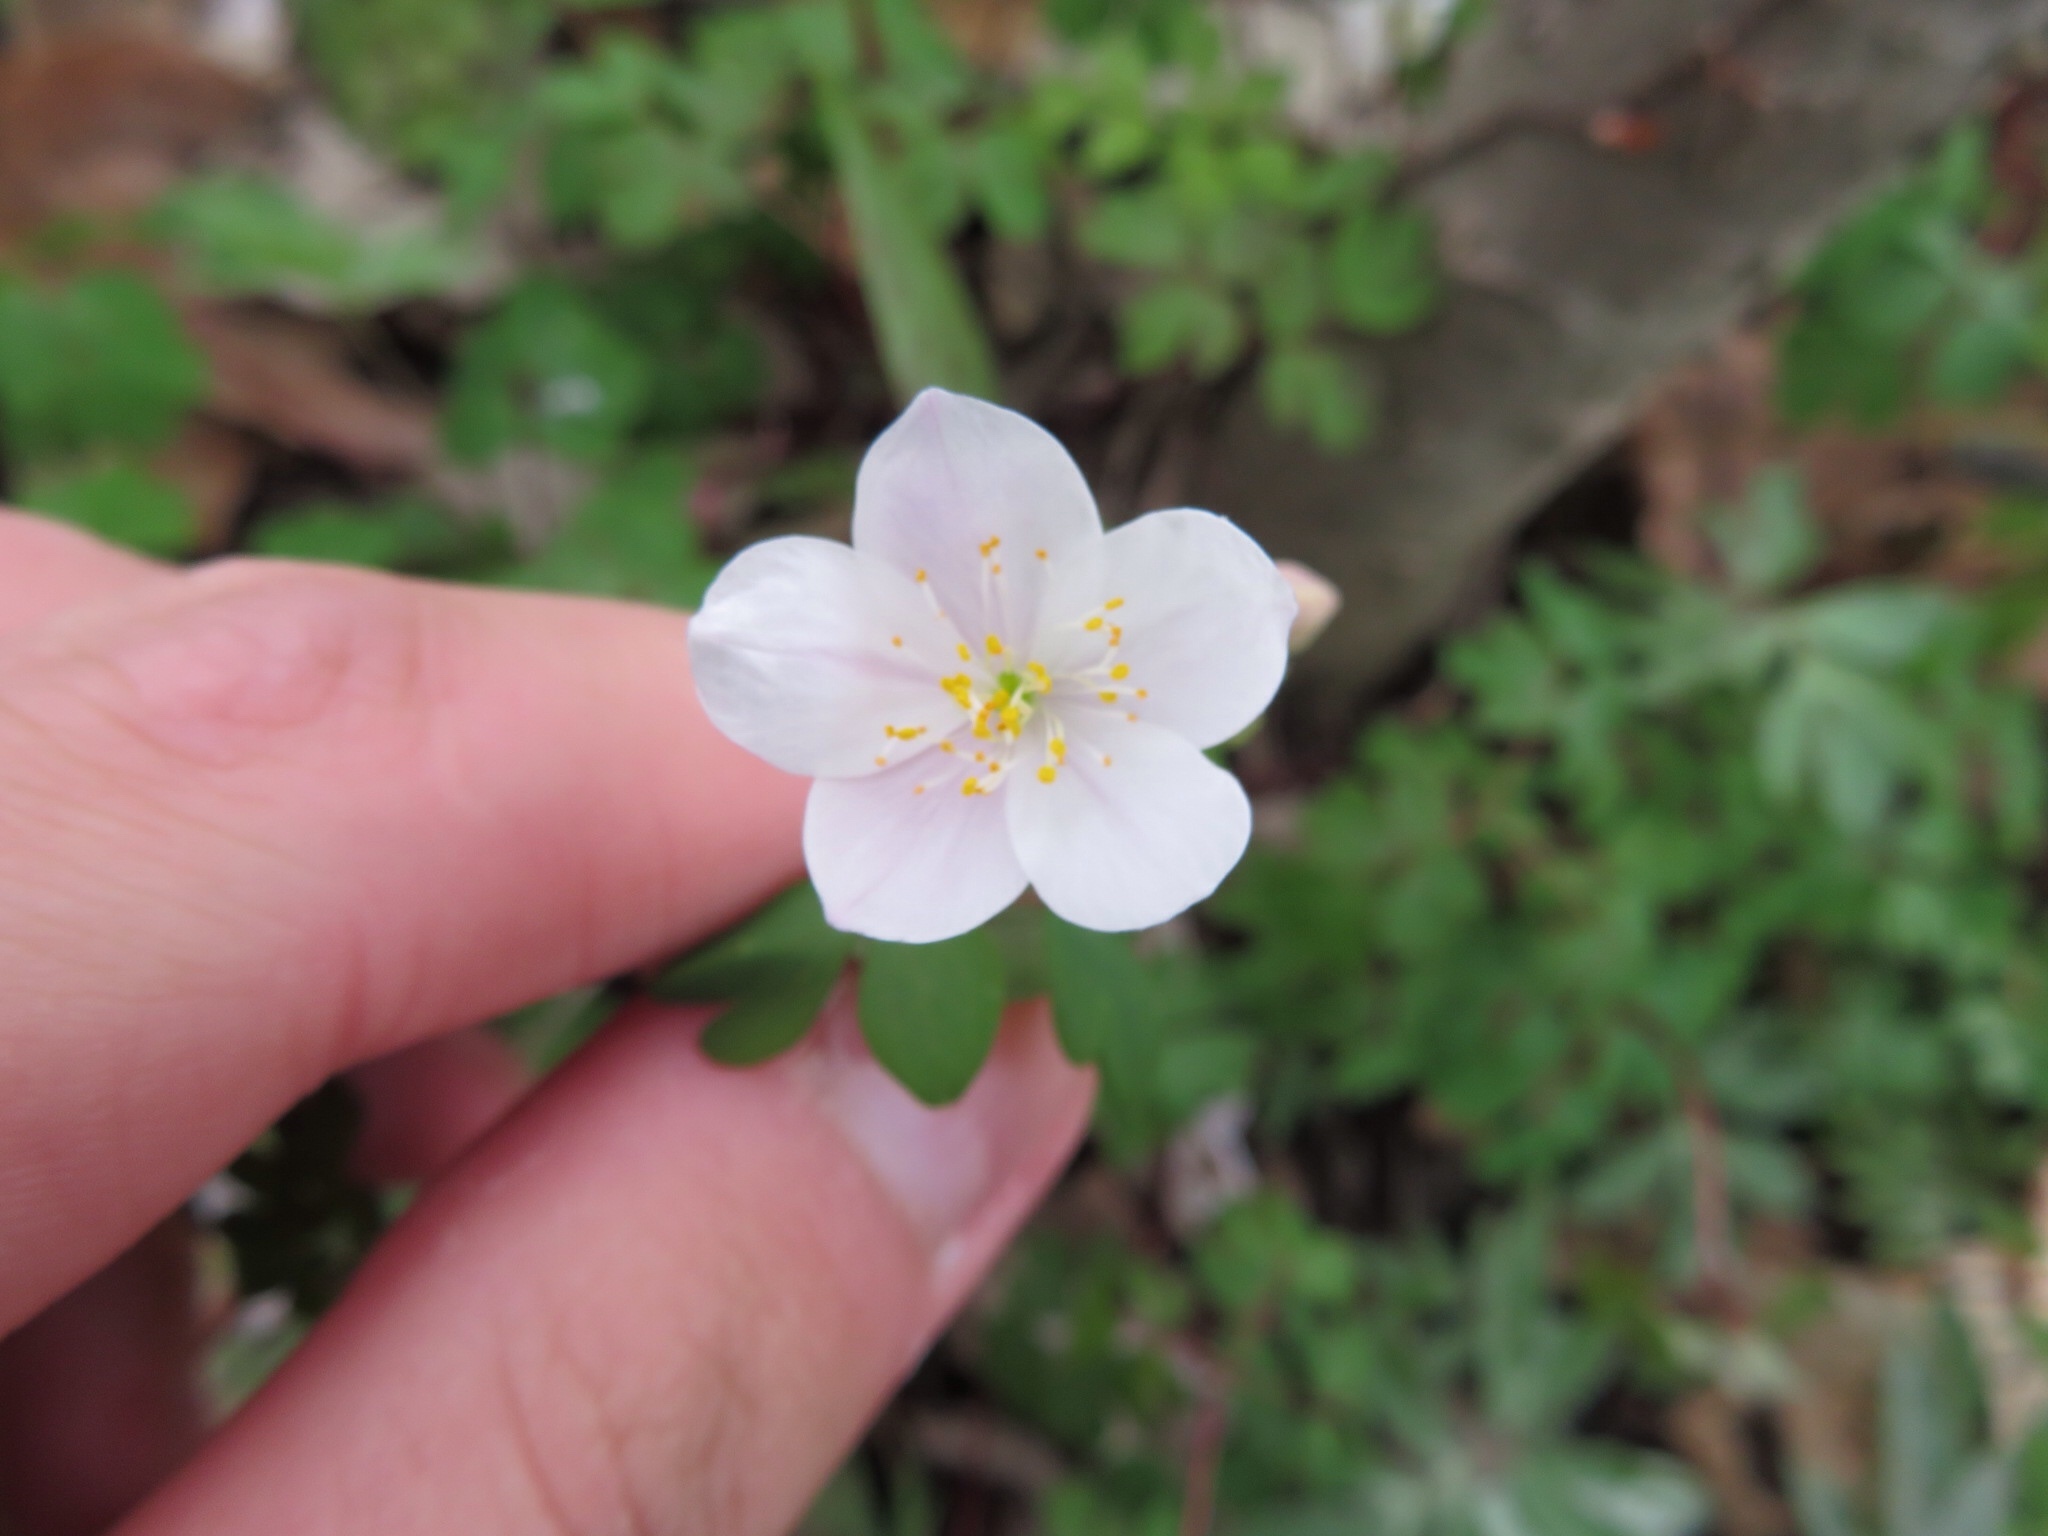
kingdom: Plantae
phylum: Tracheophyta
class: Magnoliopsida
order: Ranunculales
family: Ranunculaceae
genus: Enemion
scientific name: Enemion biternatum
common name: Eastern false rue-anemone
